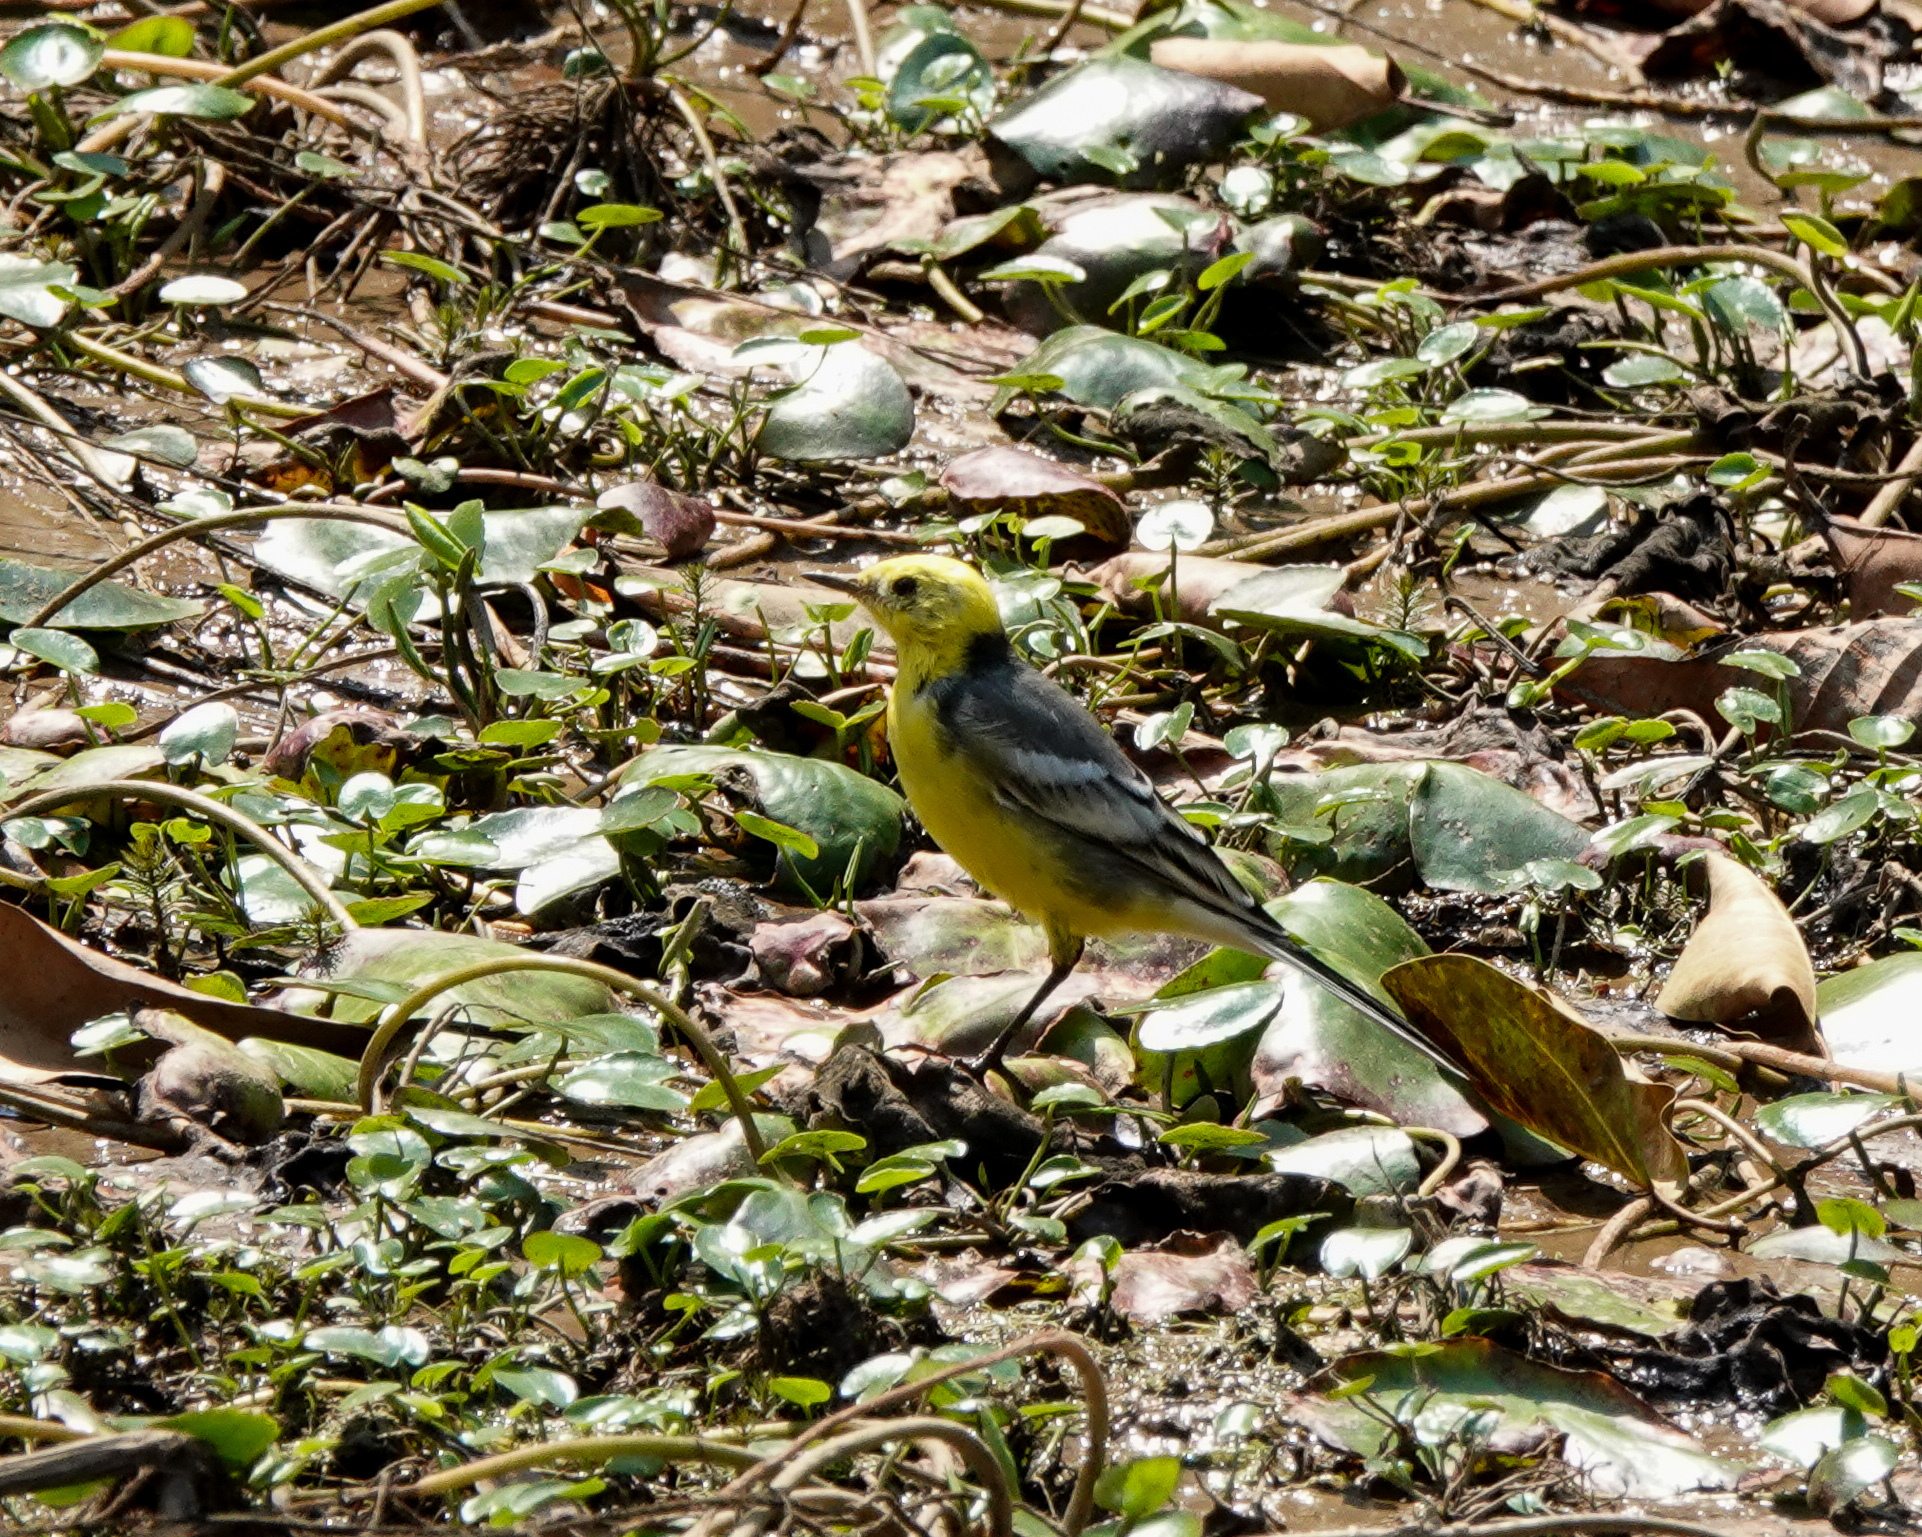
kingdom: Animalia
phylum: Chordata
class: Aves
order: Passeriformes
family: Motacillidae
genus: Motacilla
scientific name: Motacilla citreola
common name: Citrine wagtail
